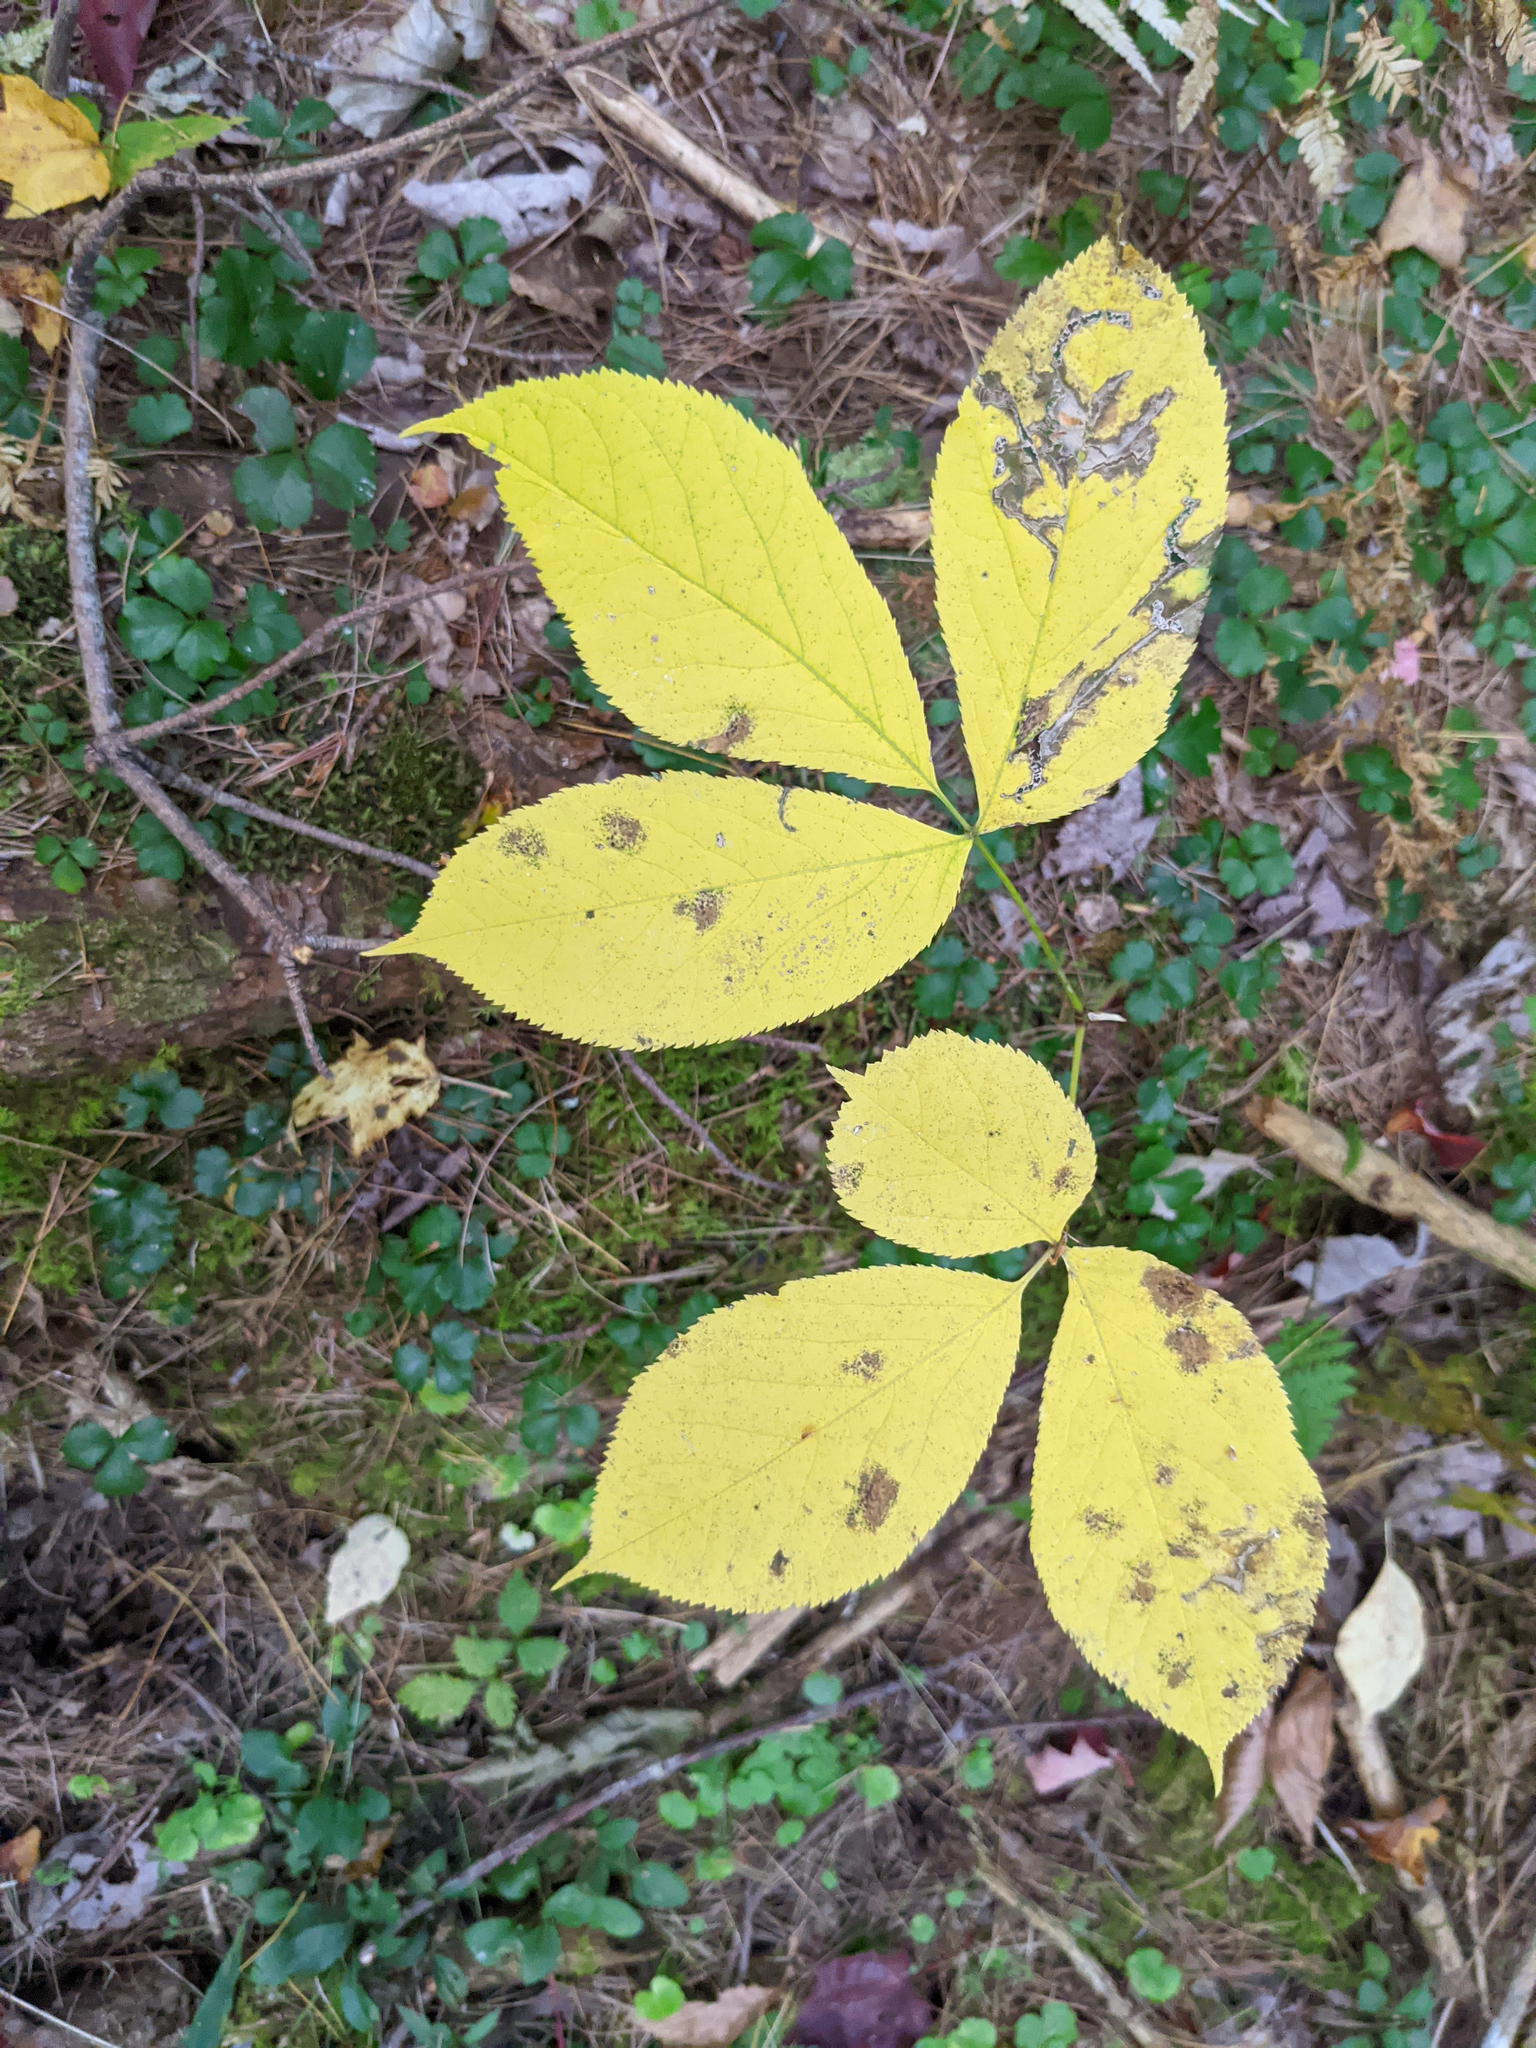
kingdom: Plantae
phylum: Tracheophyta
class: Magnoliopsida
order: Apiales
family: Araliaceae
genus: Aralia
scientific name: Aralia nudicaulis
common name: Wild sarsaparilla
